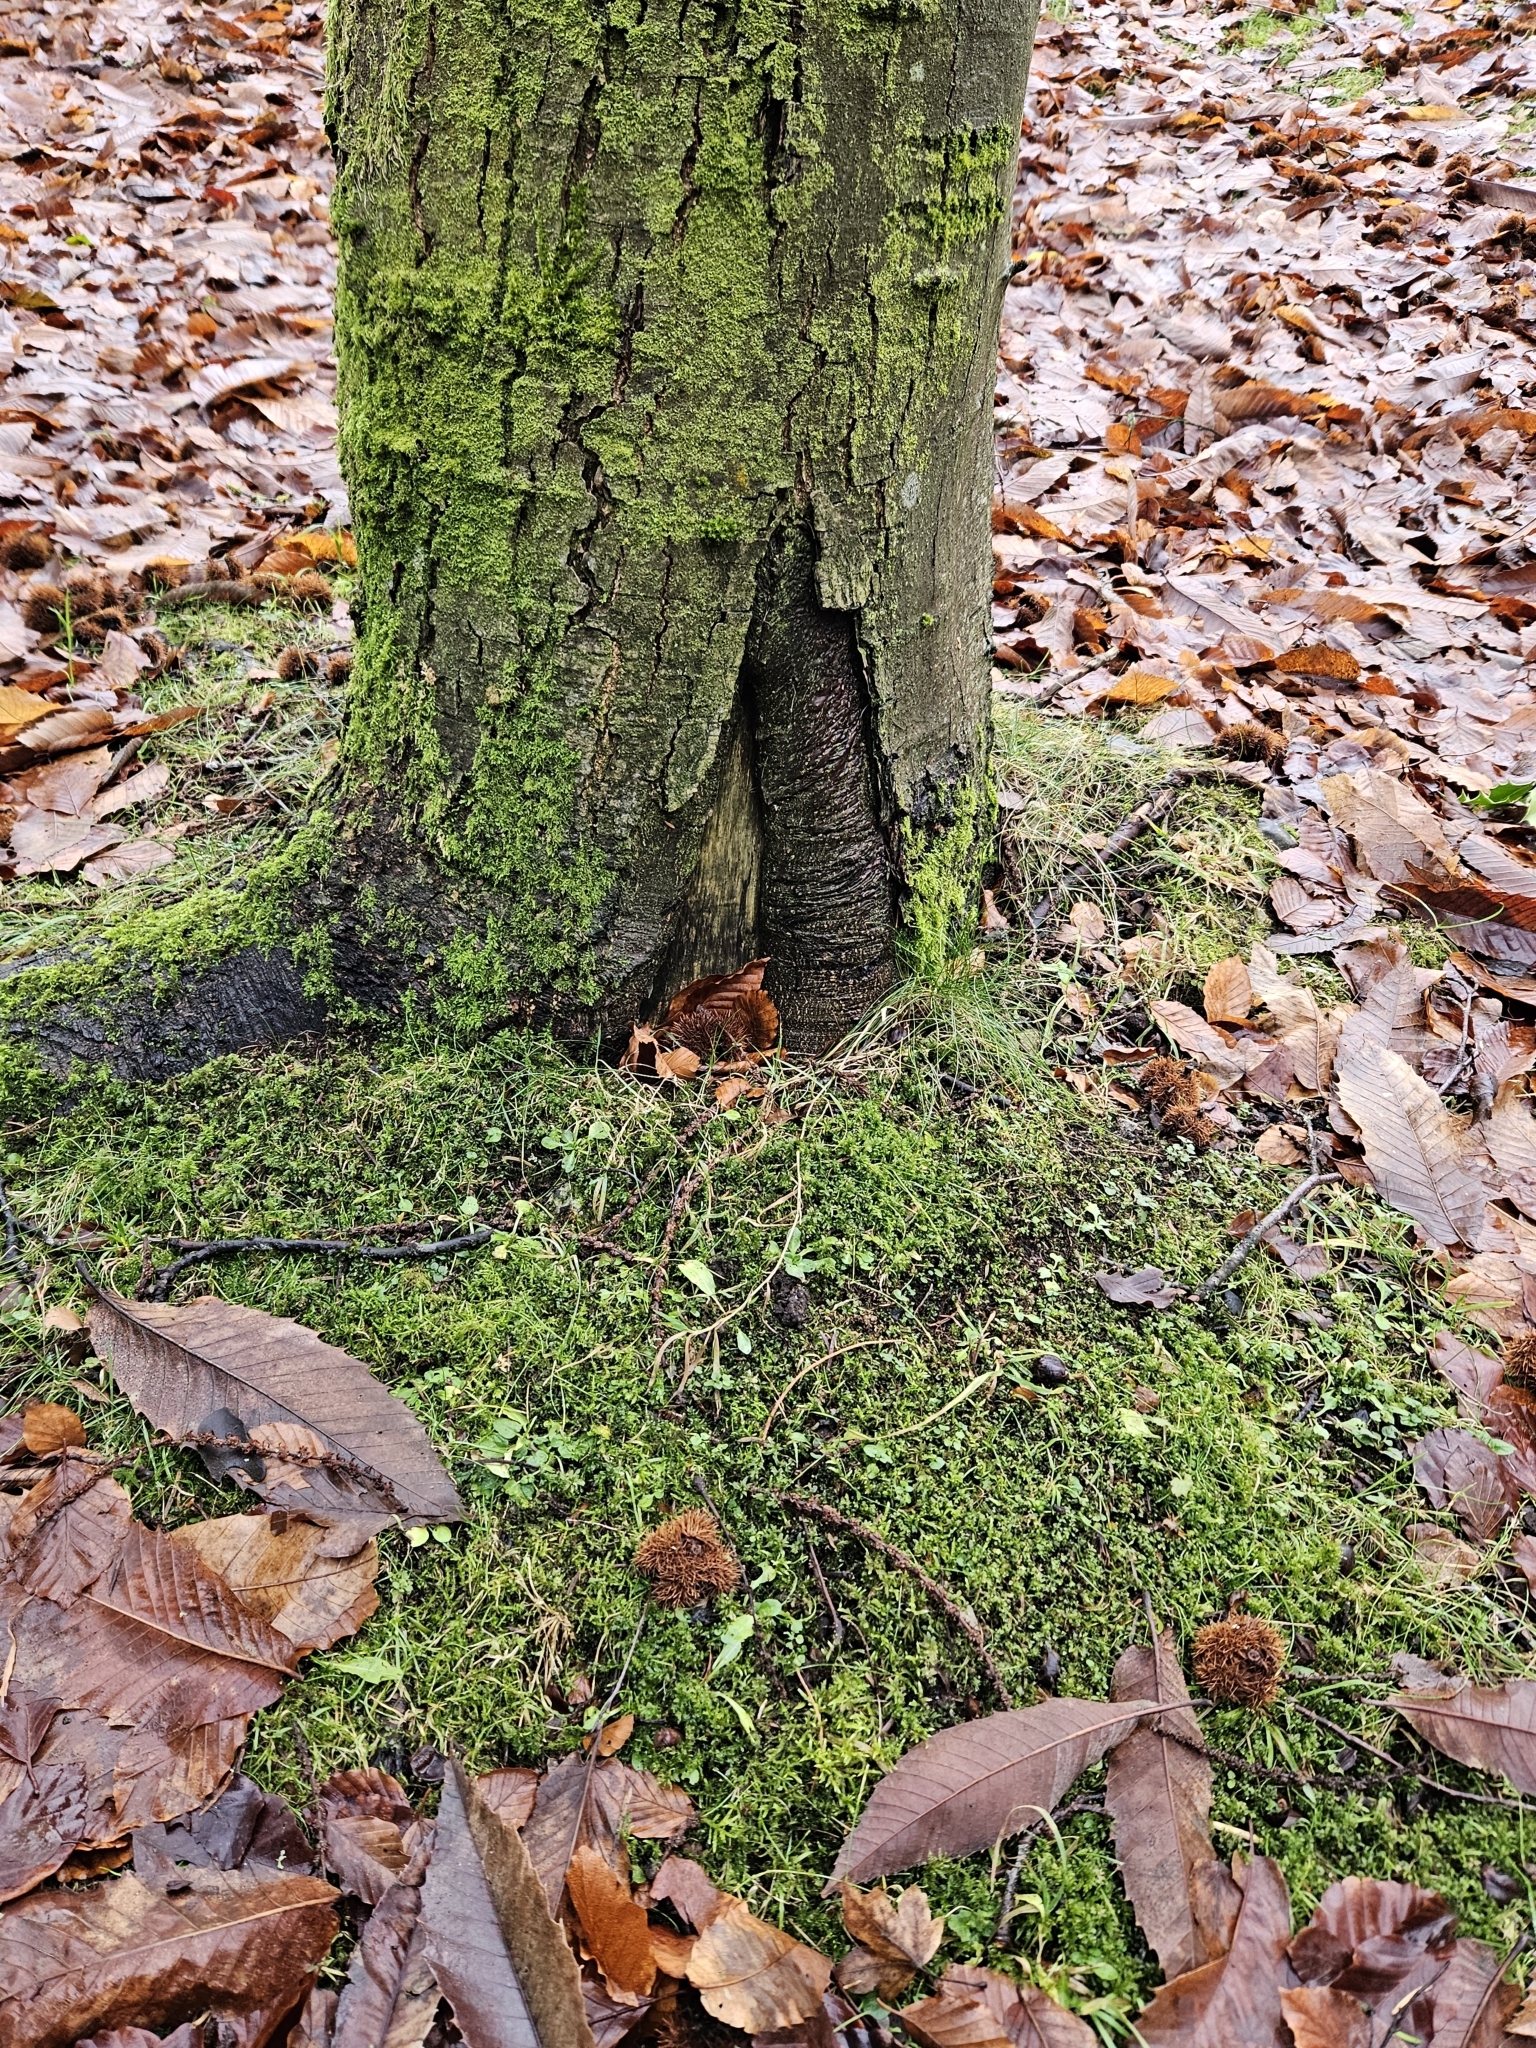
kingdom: Plantae
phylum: Bryophyta
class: Bryopsida
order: Hypnales
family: Pylaisiaceae
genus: Calliergonella
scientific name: Calliergonella cuspidata
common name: Common large wetland moss
